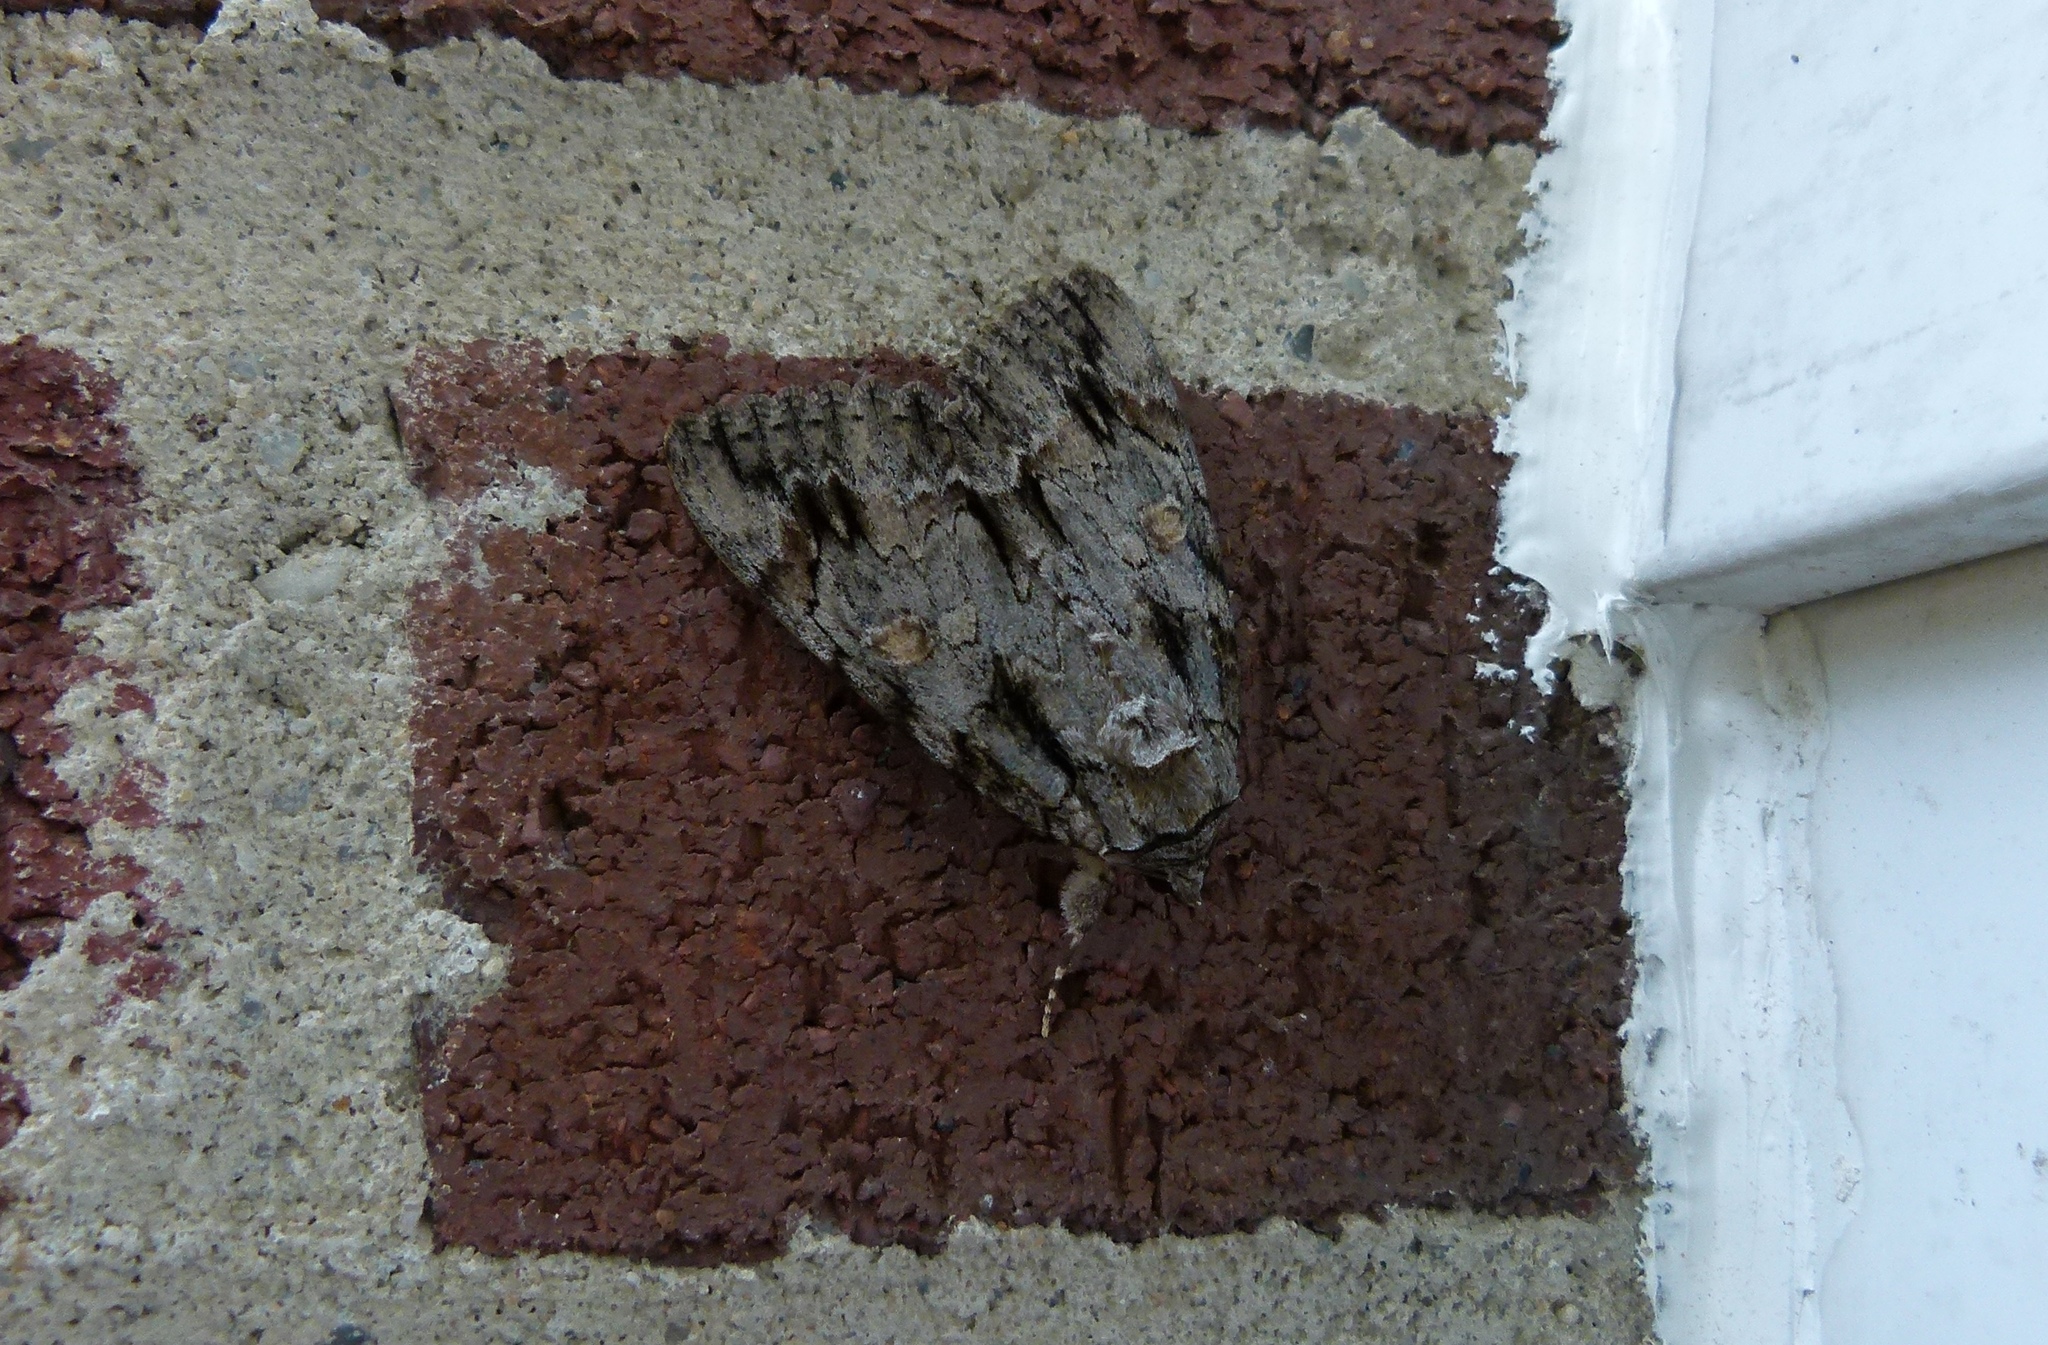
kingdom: Animalia
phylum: Arthropoda
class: Insecta
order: Lepidoptera
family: Erebidae
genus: Catocala
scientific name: Catocala neogama
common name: Bride underwing
